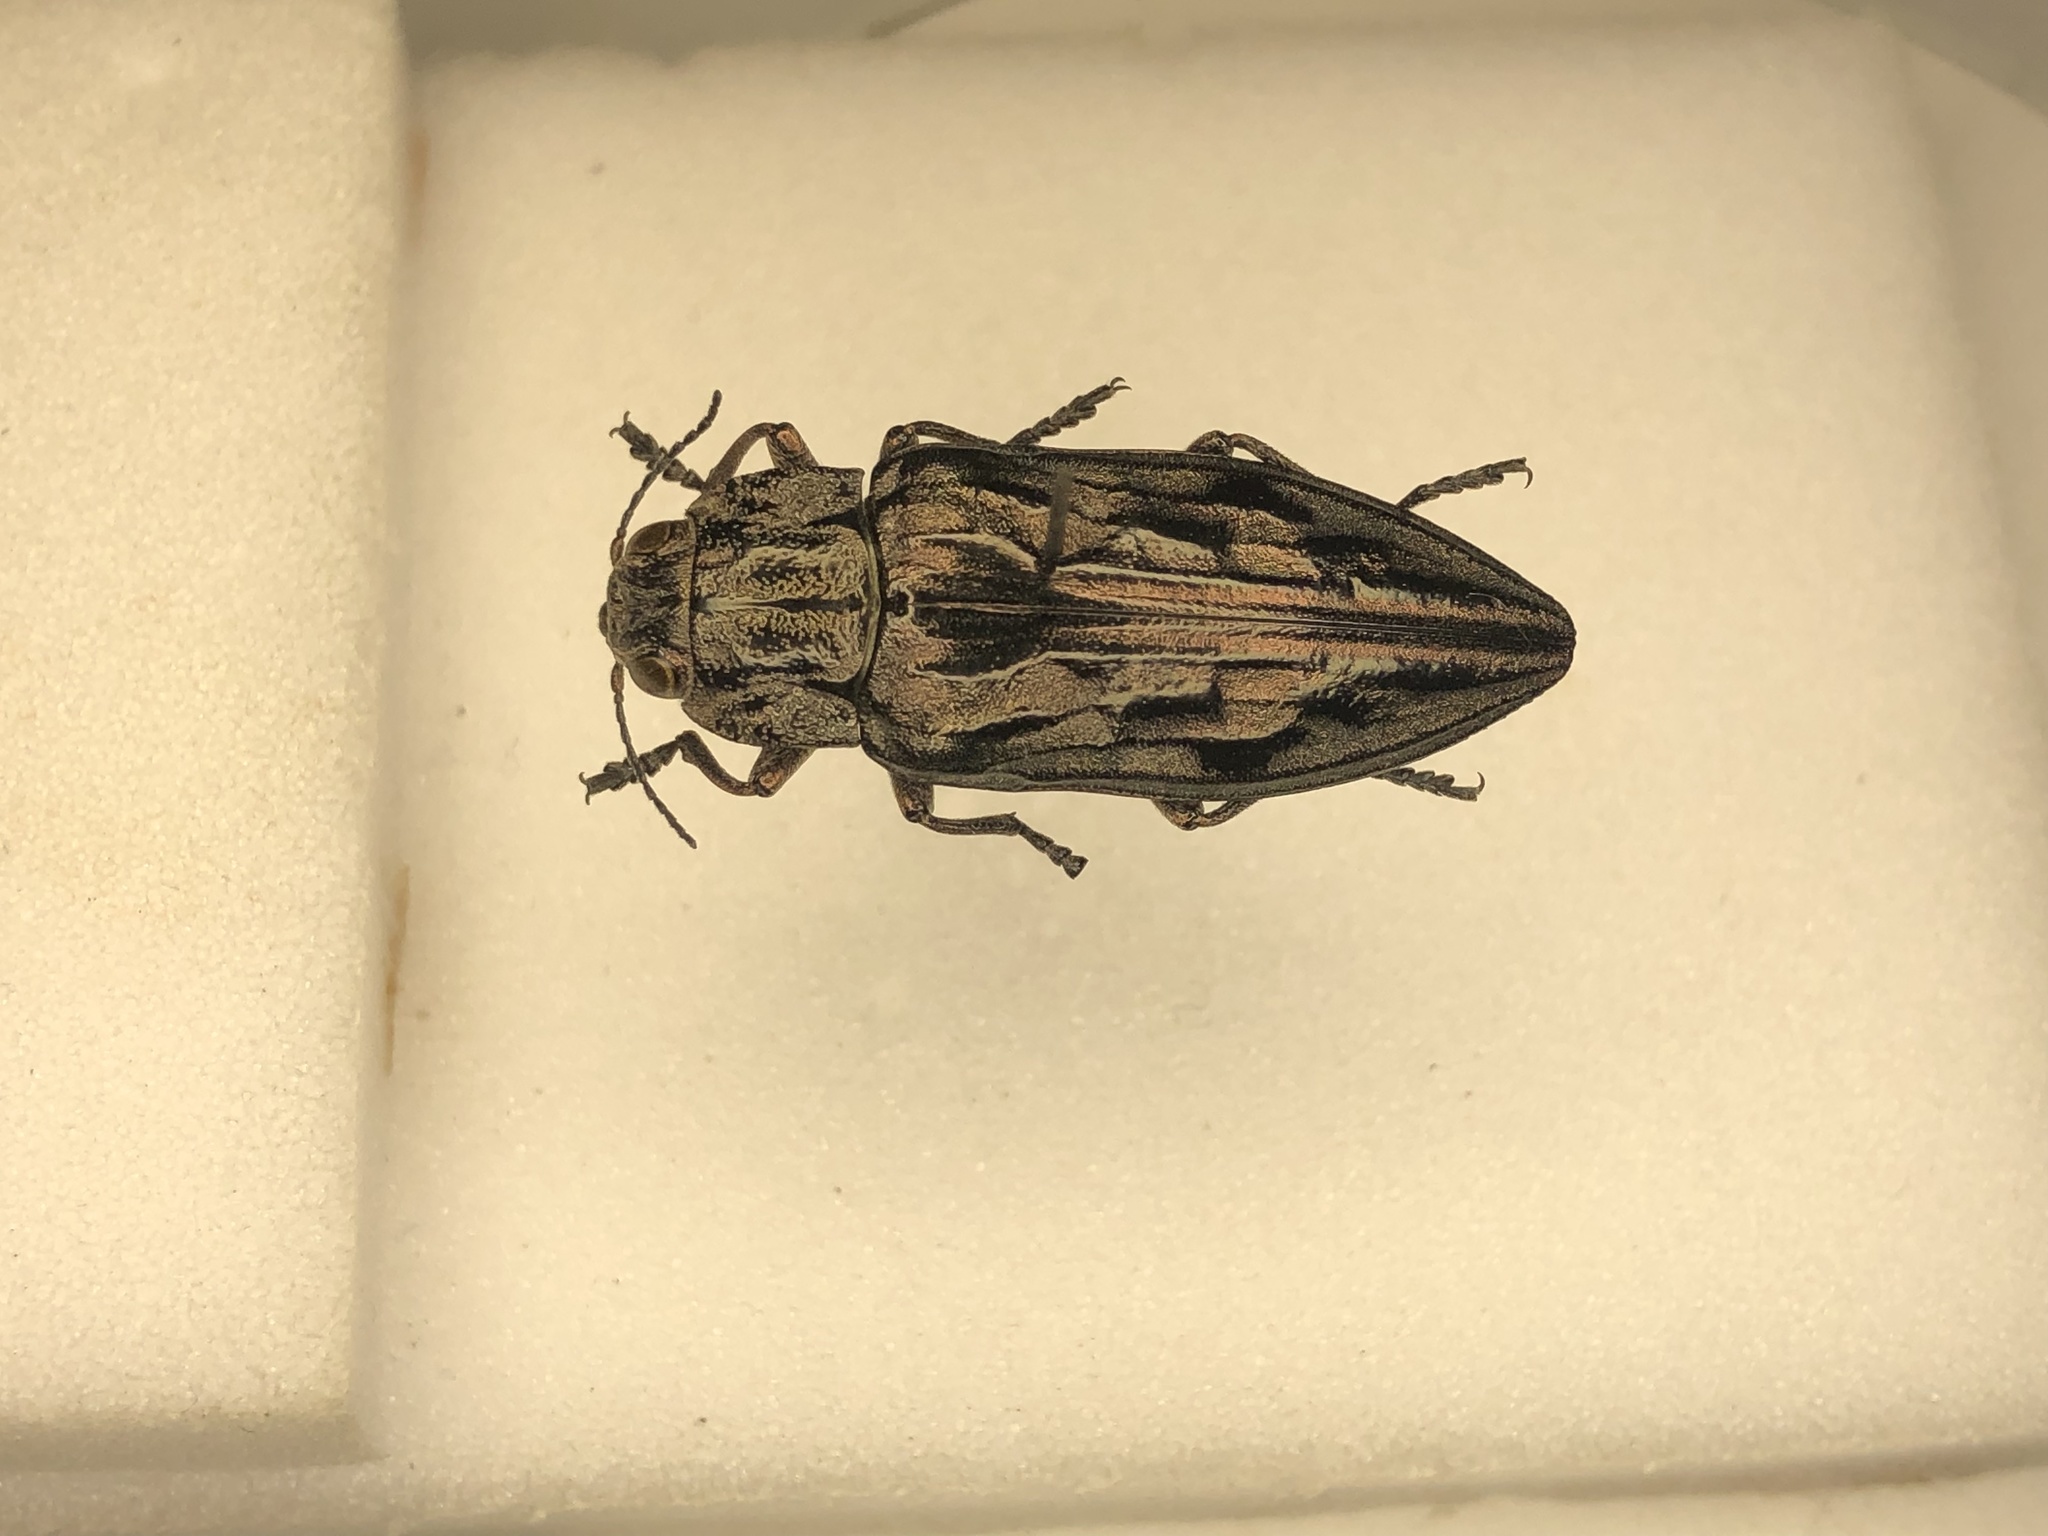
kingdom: Animalia
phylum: Arthropoda
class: Insecta
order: Coleoptera
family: Buprestidae
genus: Chalcophora
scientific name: Chalcophora virginiensis
